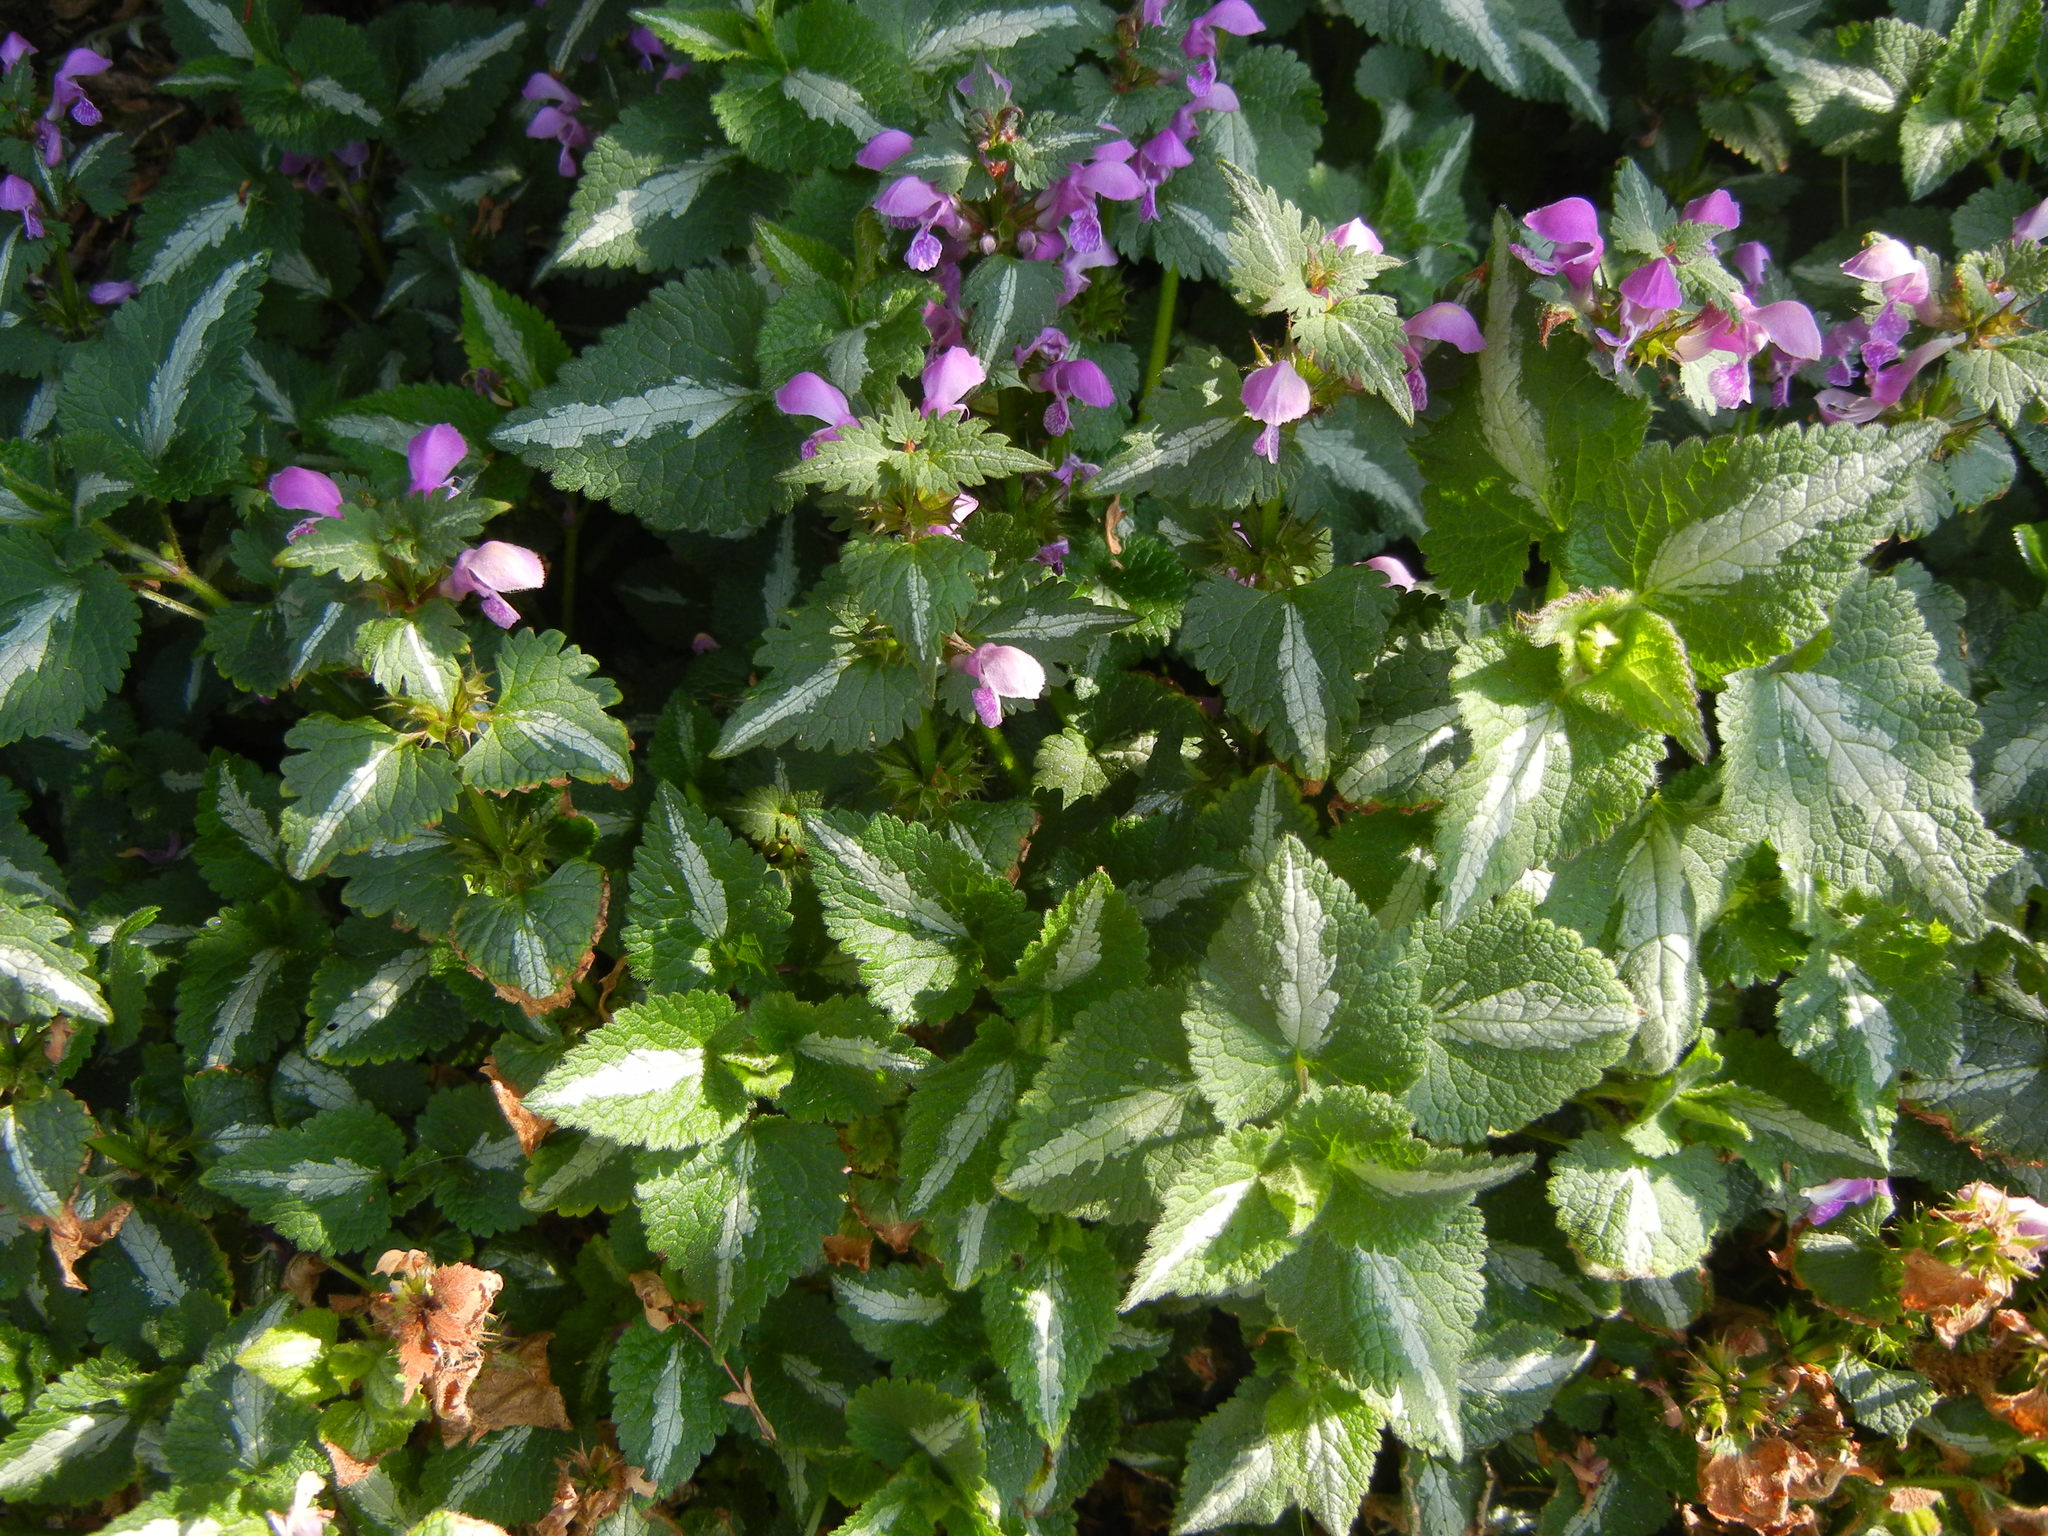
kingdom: Plantae
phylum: Tracheophyta
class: Magnoliopsida
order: Lamiales
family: Lamiaceae
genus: Lamium
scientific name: Lamium maculatum
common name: Spotted dead-nettle
